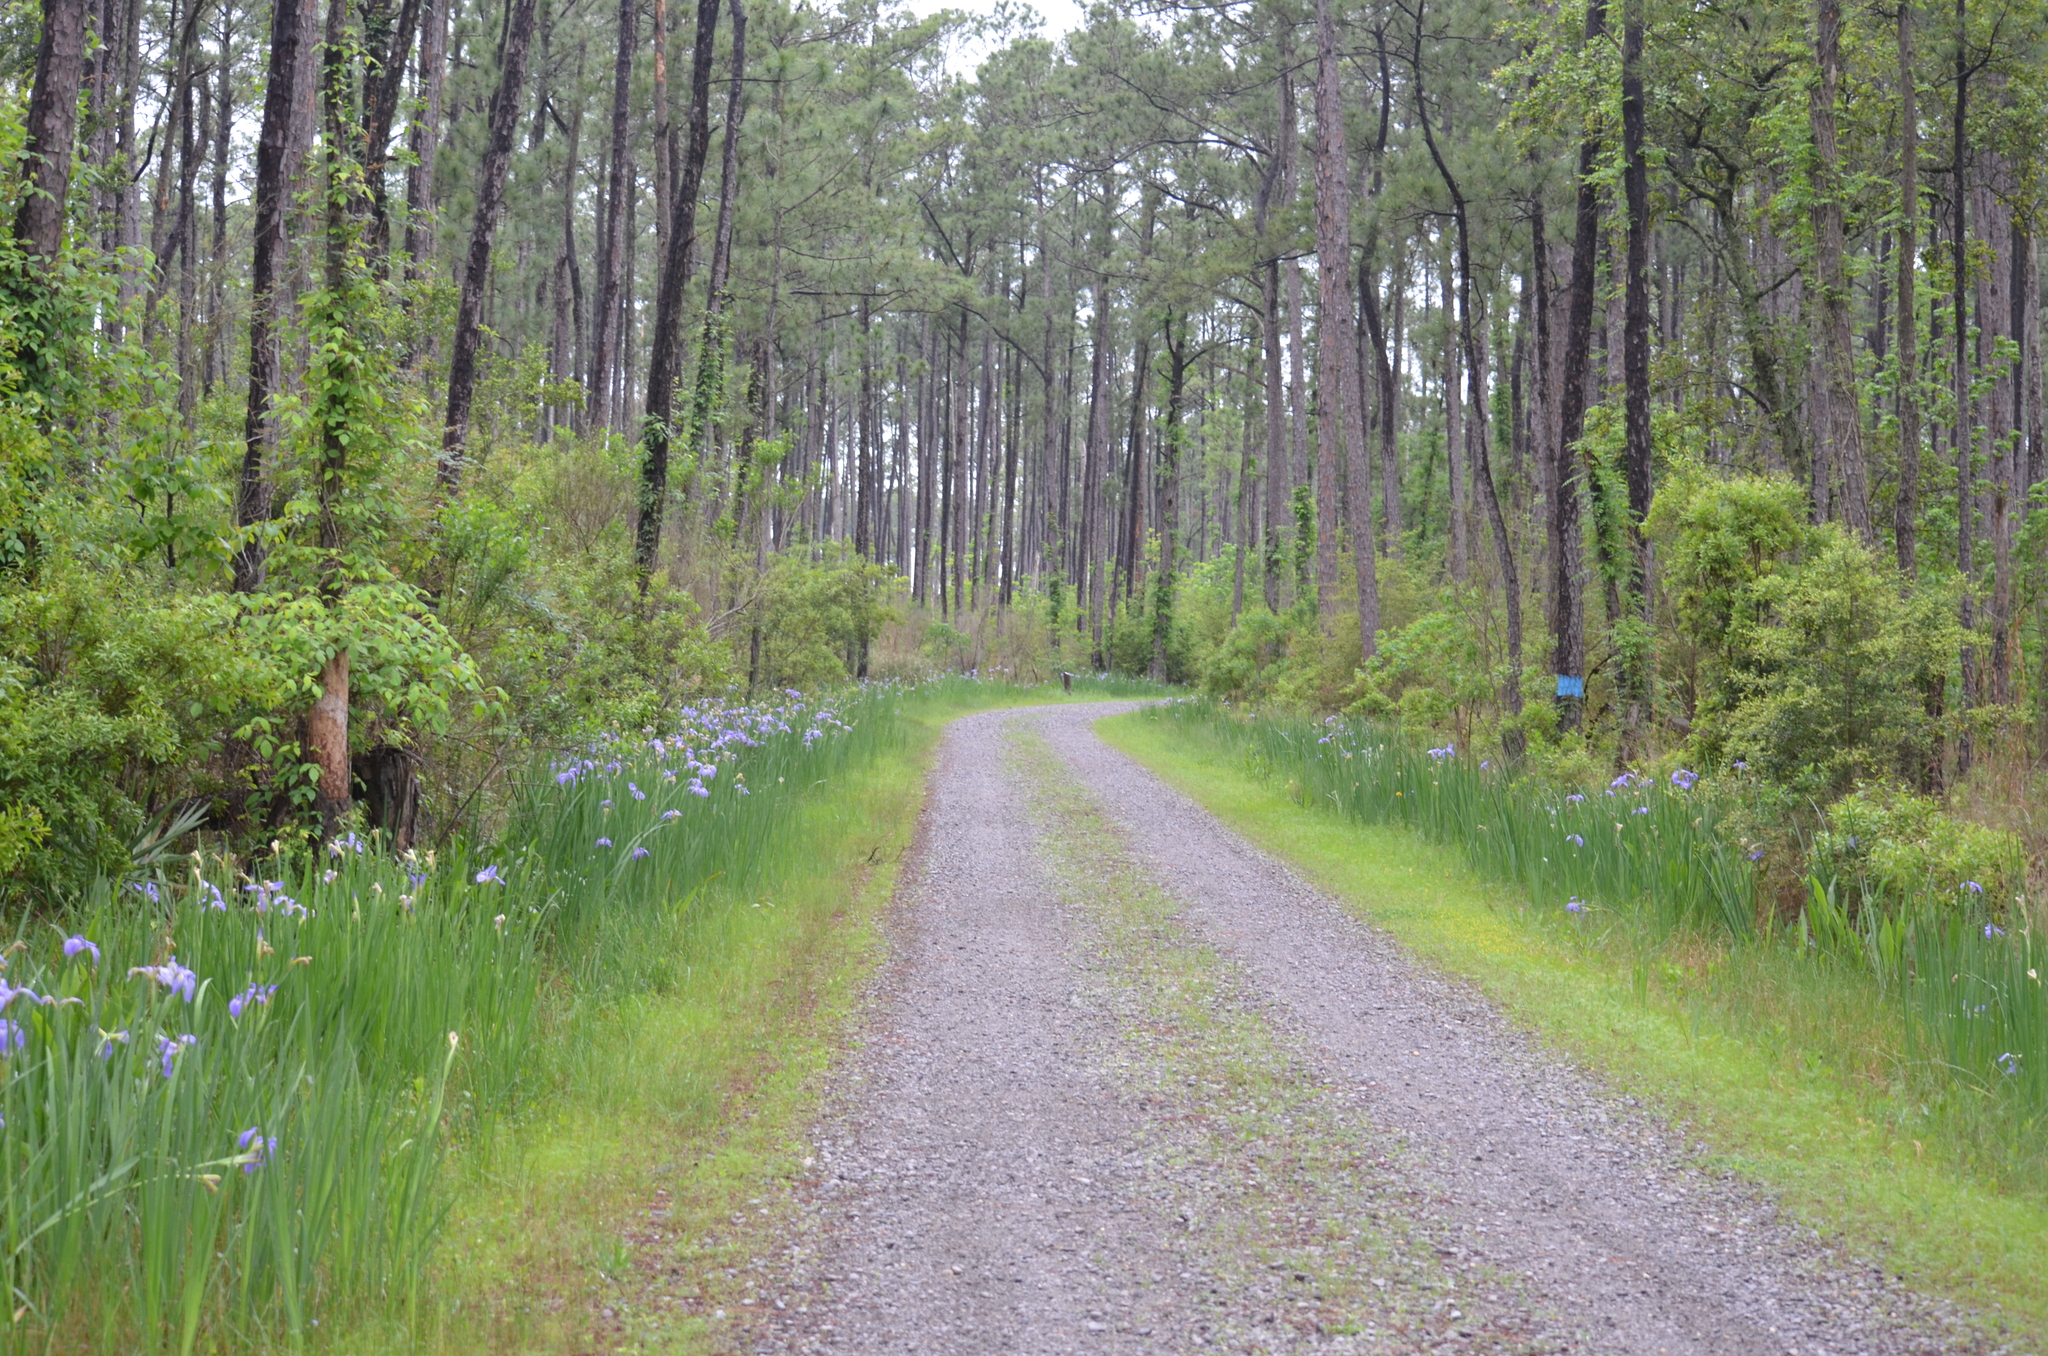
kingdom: Plantae
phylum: Tracheophyta
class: Liliopsida
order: Asparagales
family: Iridaceae
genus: Iris
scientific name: Iris giganticaerulea
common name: Giant blue iris
